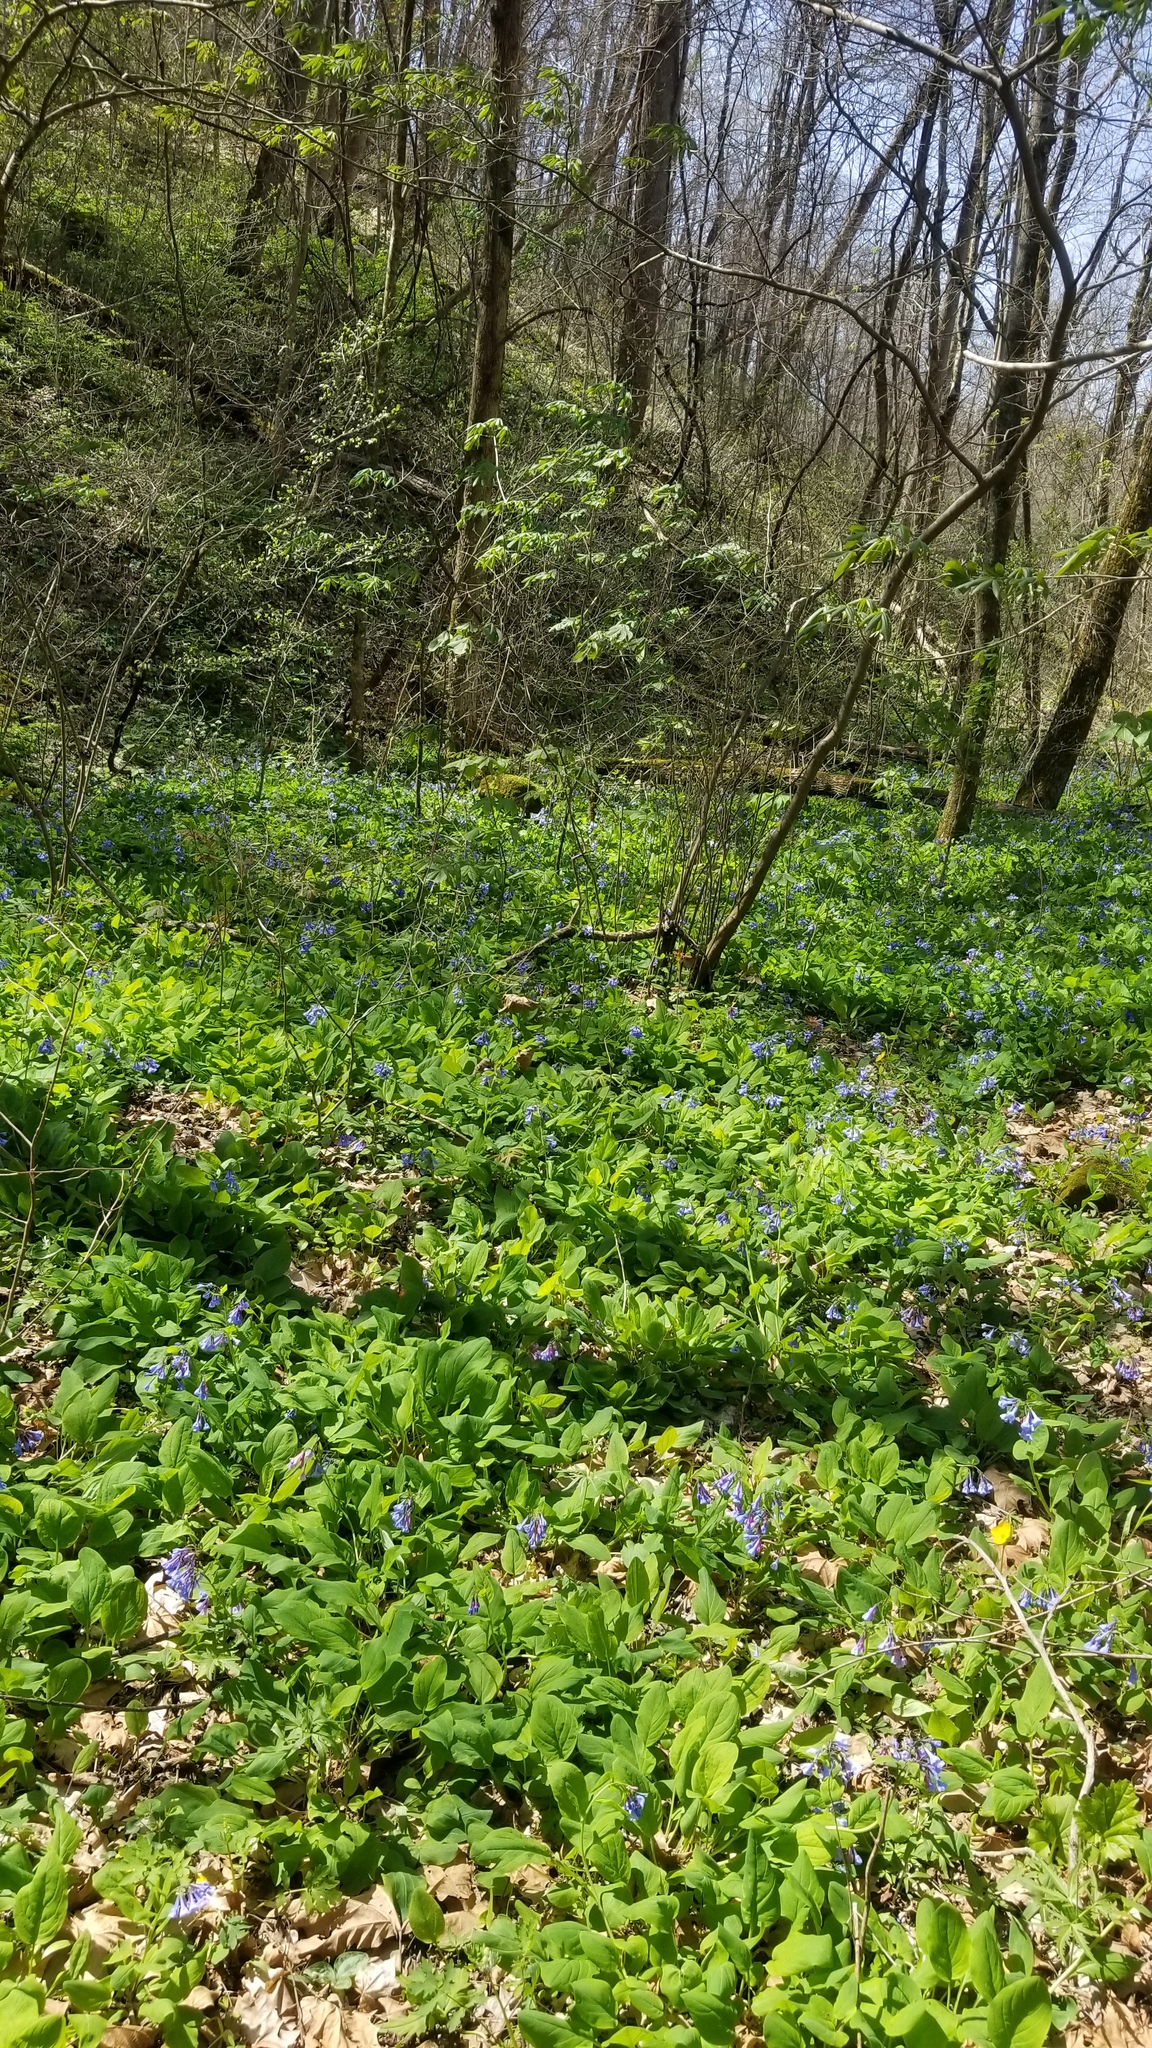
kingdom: Plantae
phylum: Tracheophyta
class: Magnoliopsida
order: Boraginales
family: Boraginaceae
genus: Mertensia
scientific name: Mertensia virginica
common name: Virginia bluebells
